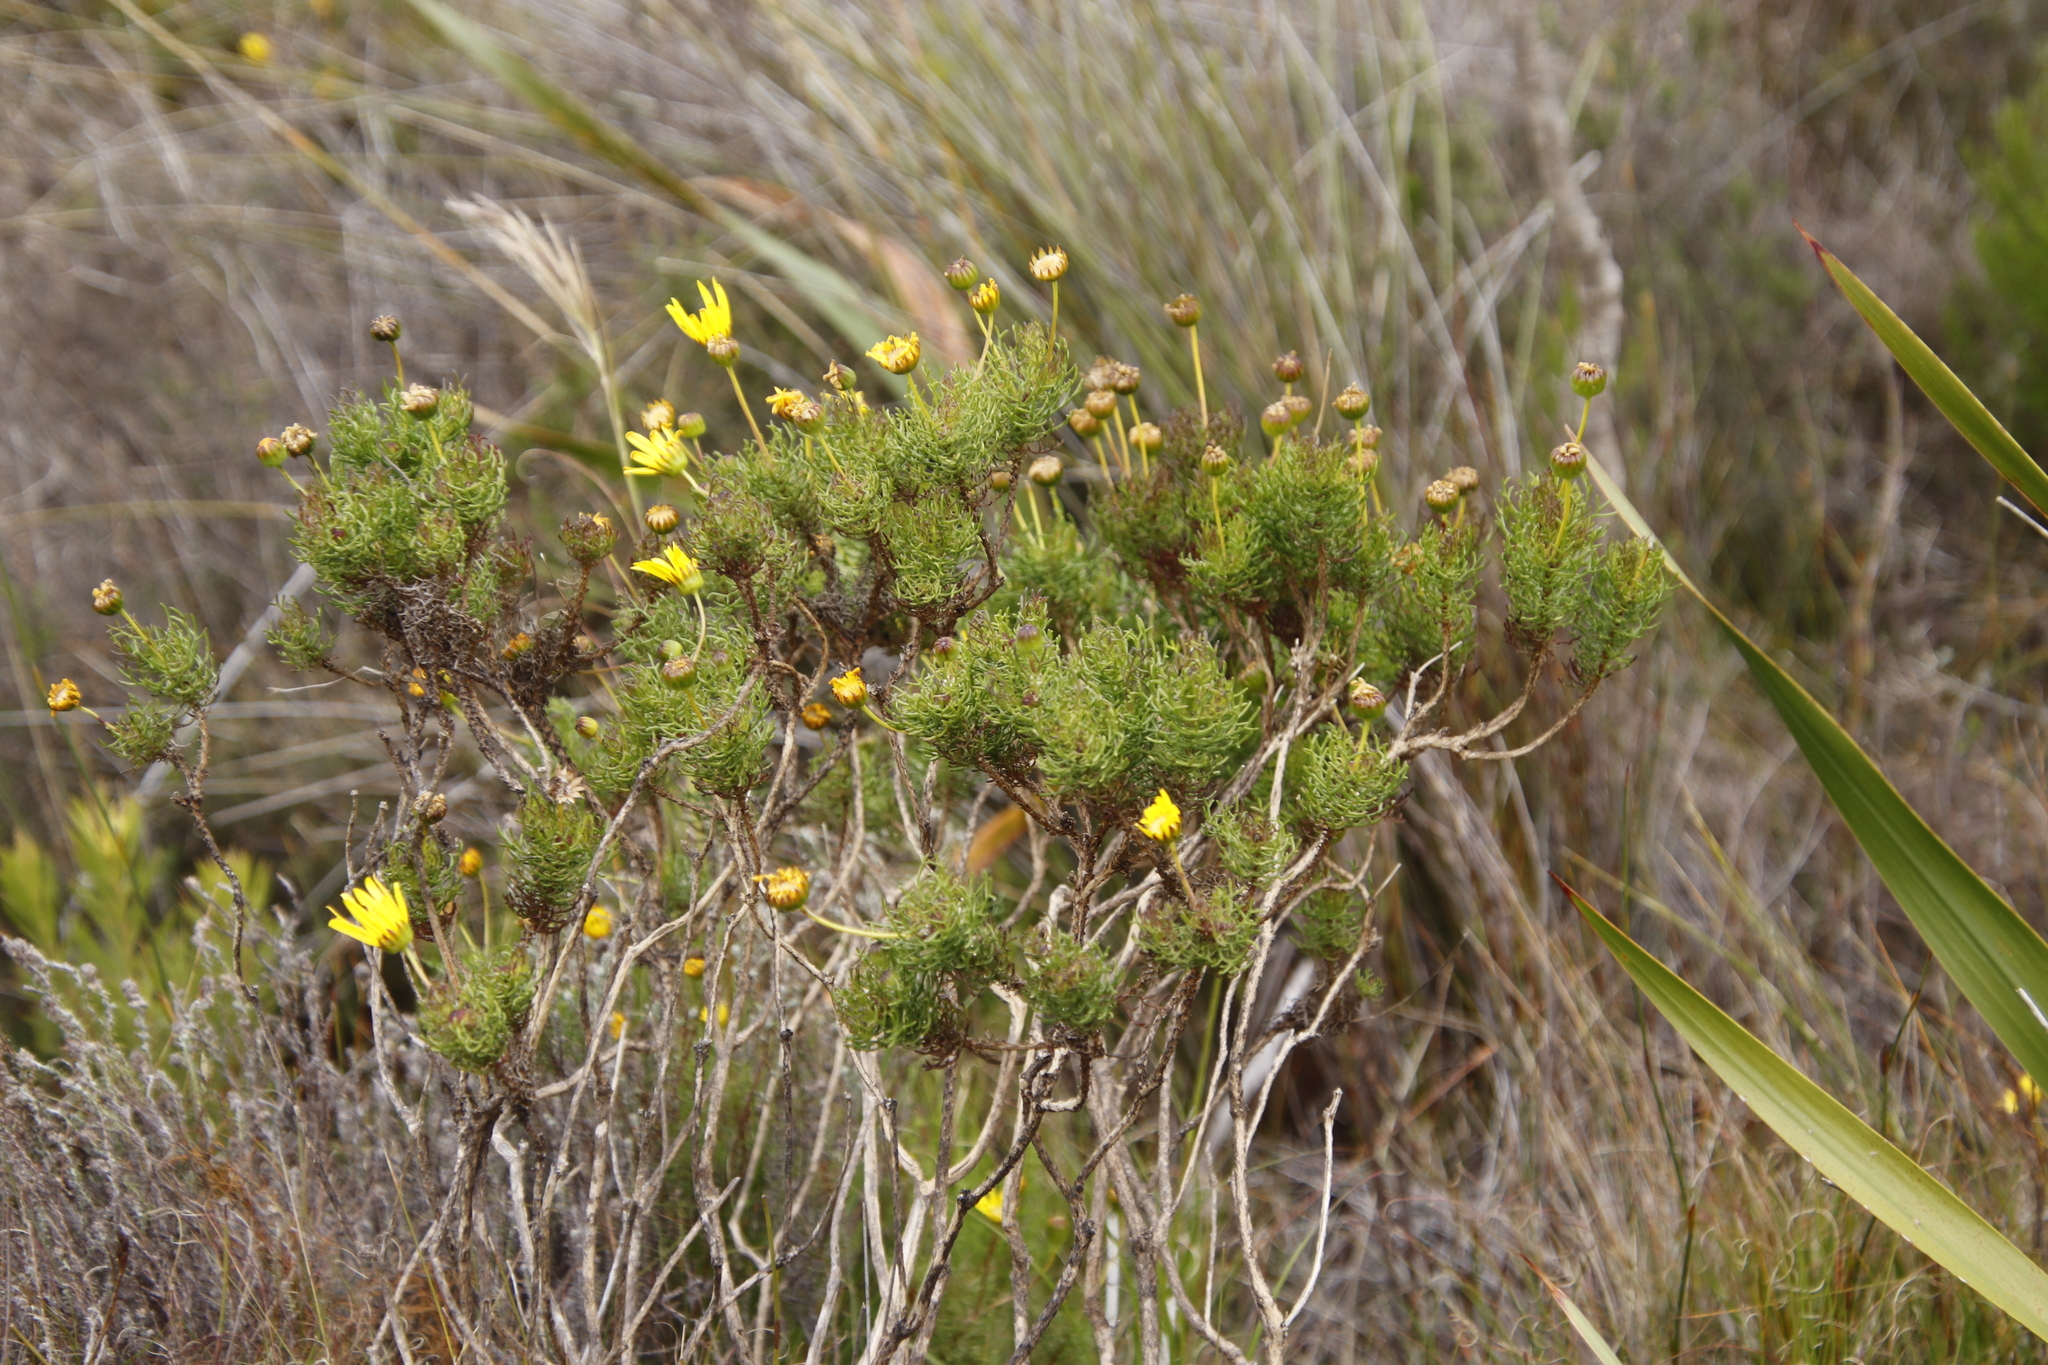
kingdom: Plantae
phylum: Tracheophyta
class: Magnoliopsida
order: Asterales
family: Asteraceae
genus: Euryops
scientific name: Euryops abrotanifolius
